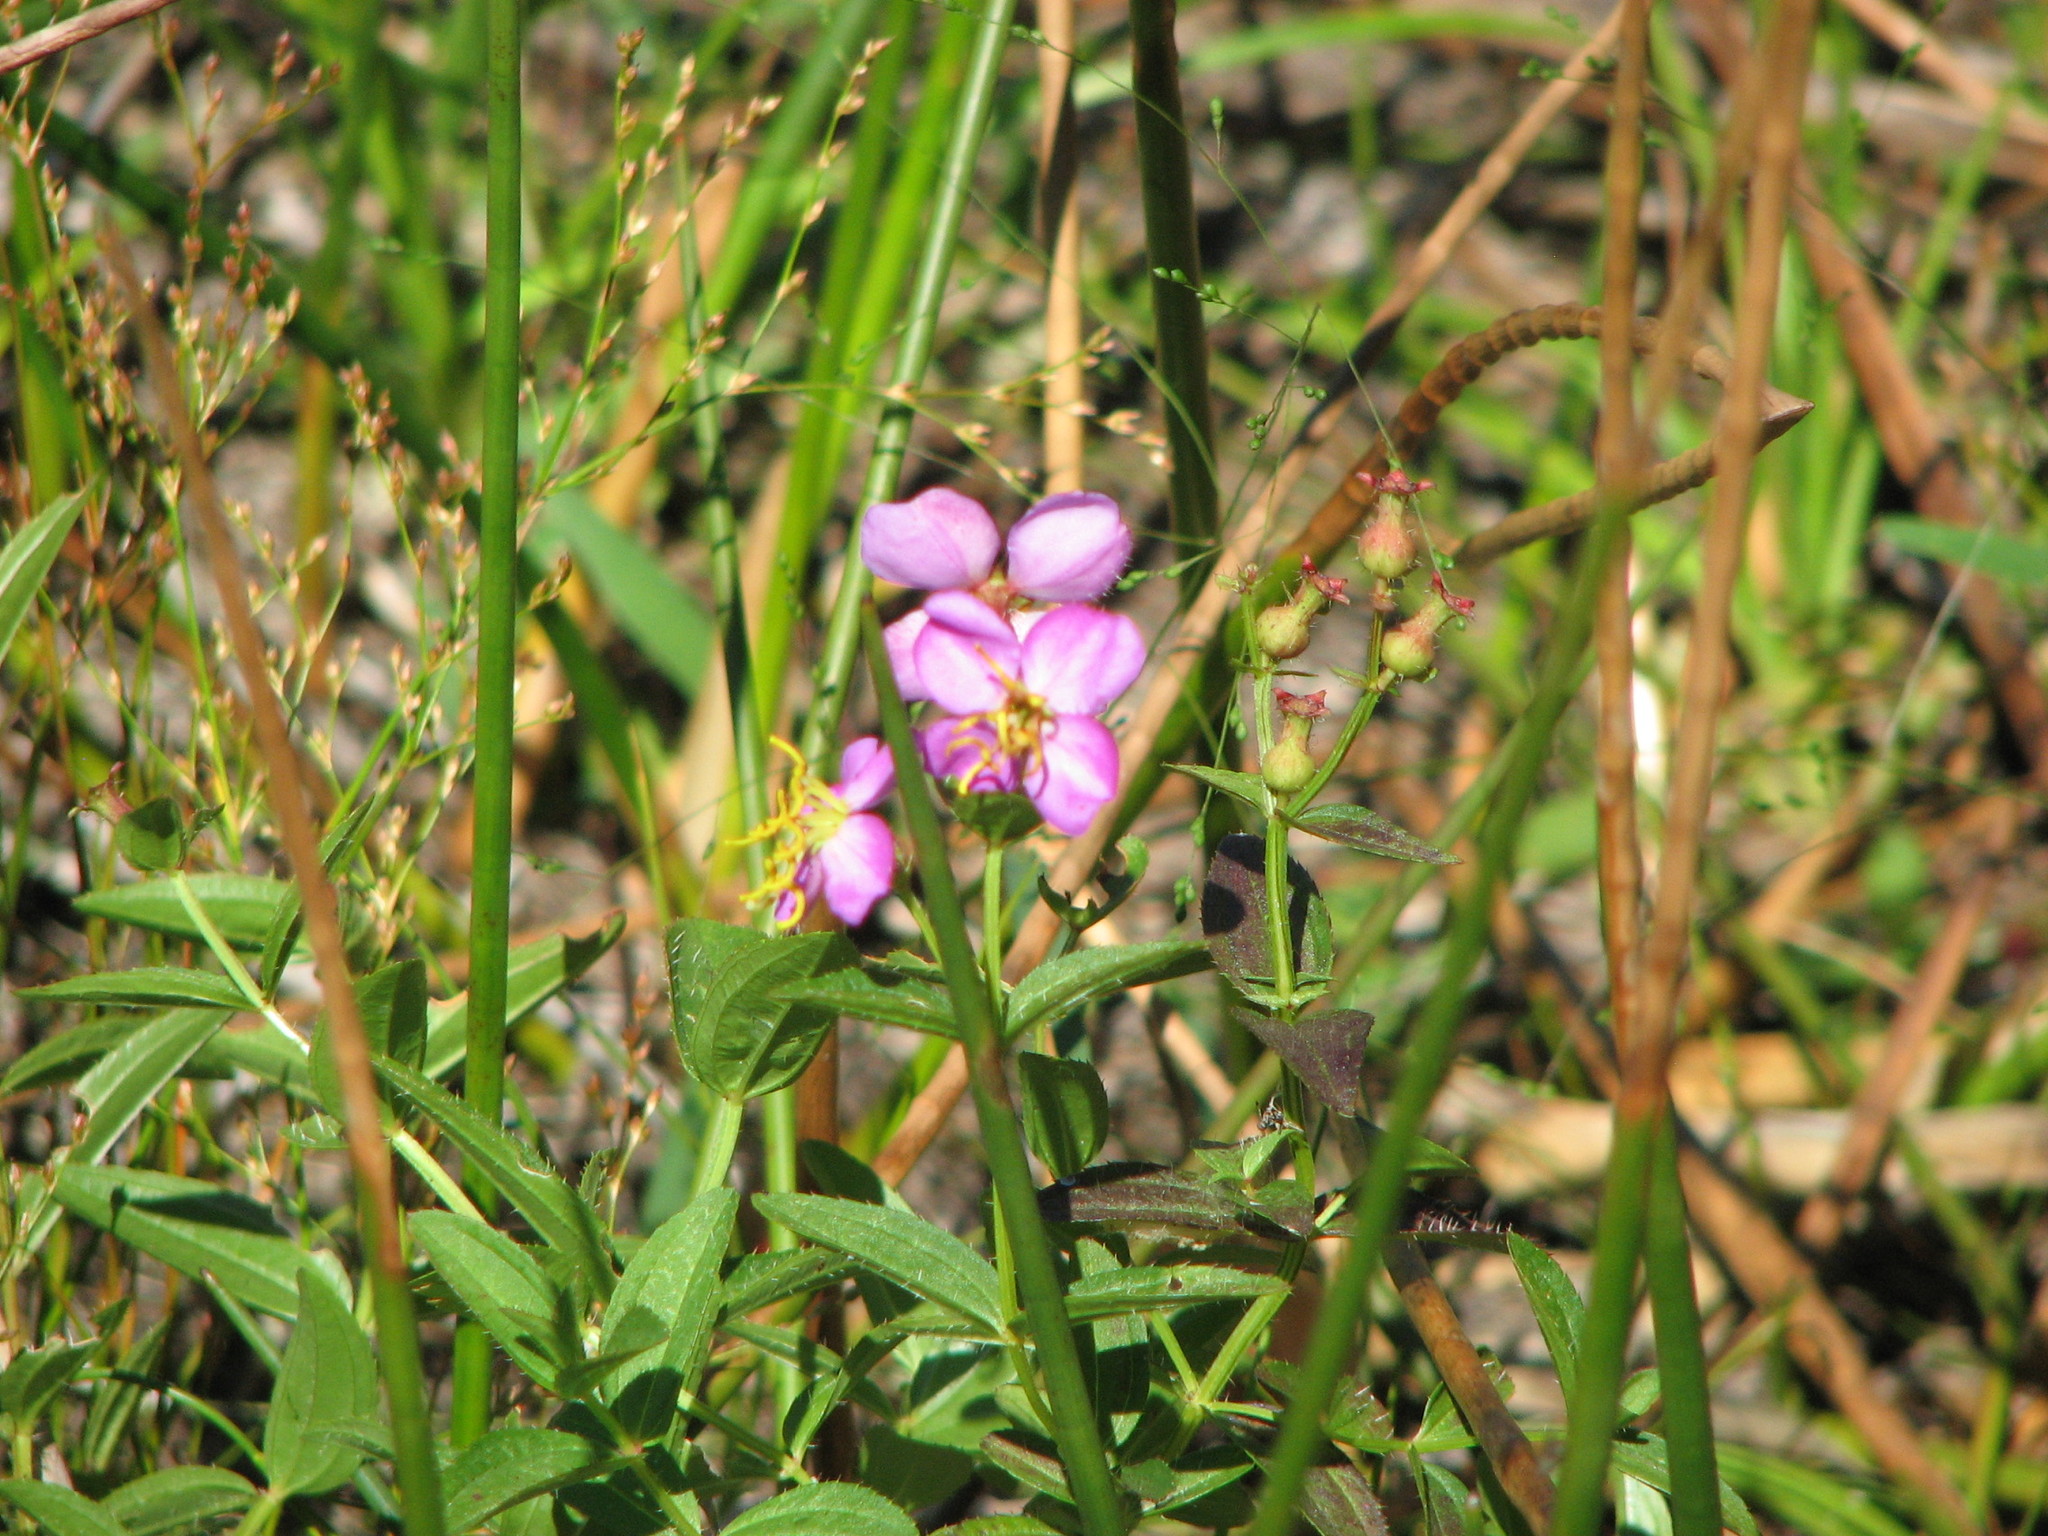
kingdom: Plantae
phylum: Tracheophyta
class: Magnoliopsida
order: Myrtales
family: Melastomataceae
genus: Rhexia
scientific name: Rhexia virginica
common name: Common meadow beauty
